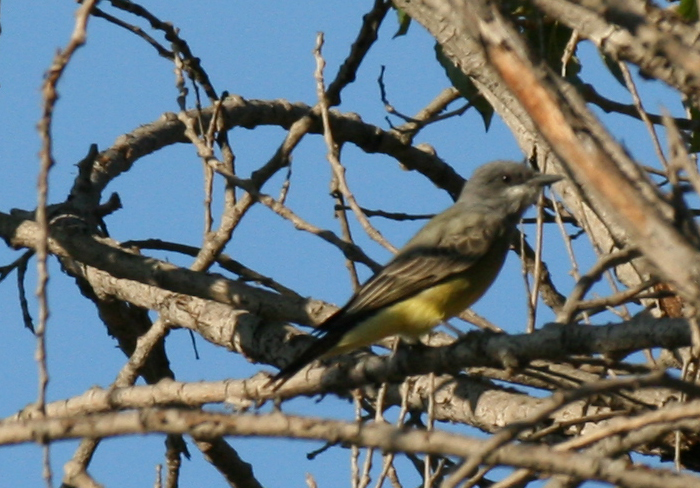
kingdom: Animalia
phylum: Chordata
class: Aves
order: Passeriformes
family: Tyrannidae
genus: Tyrannus
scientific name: Tyrannus vociferans
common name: Cassin's kingbird
